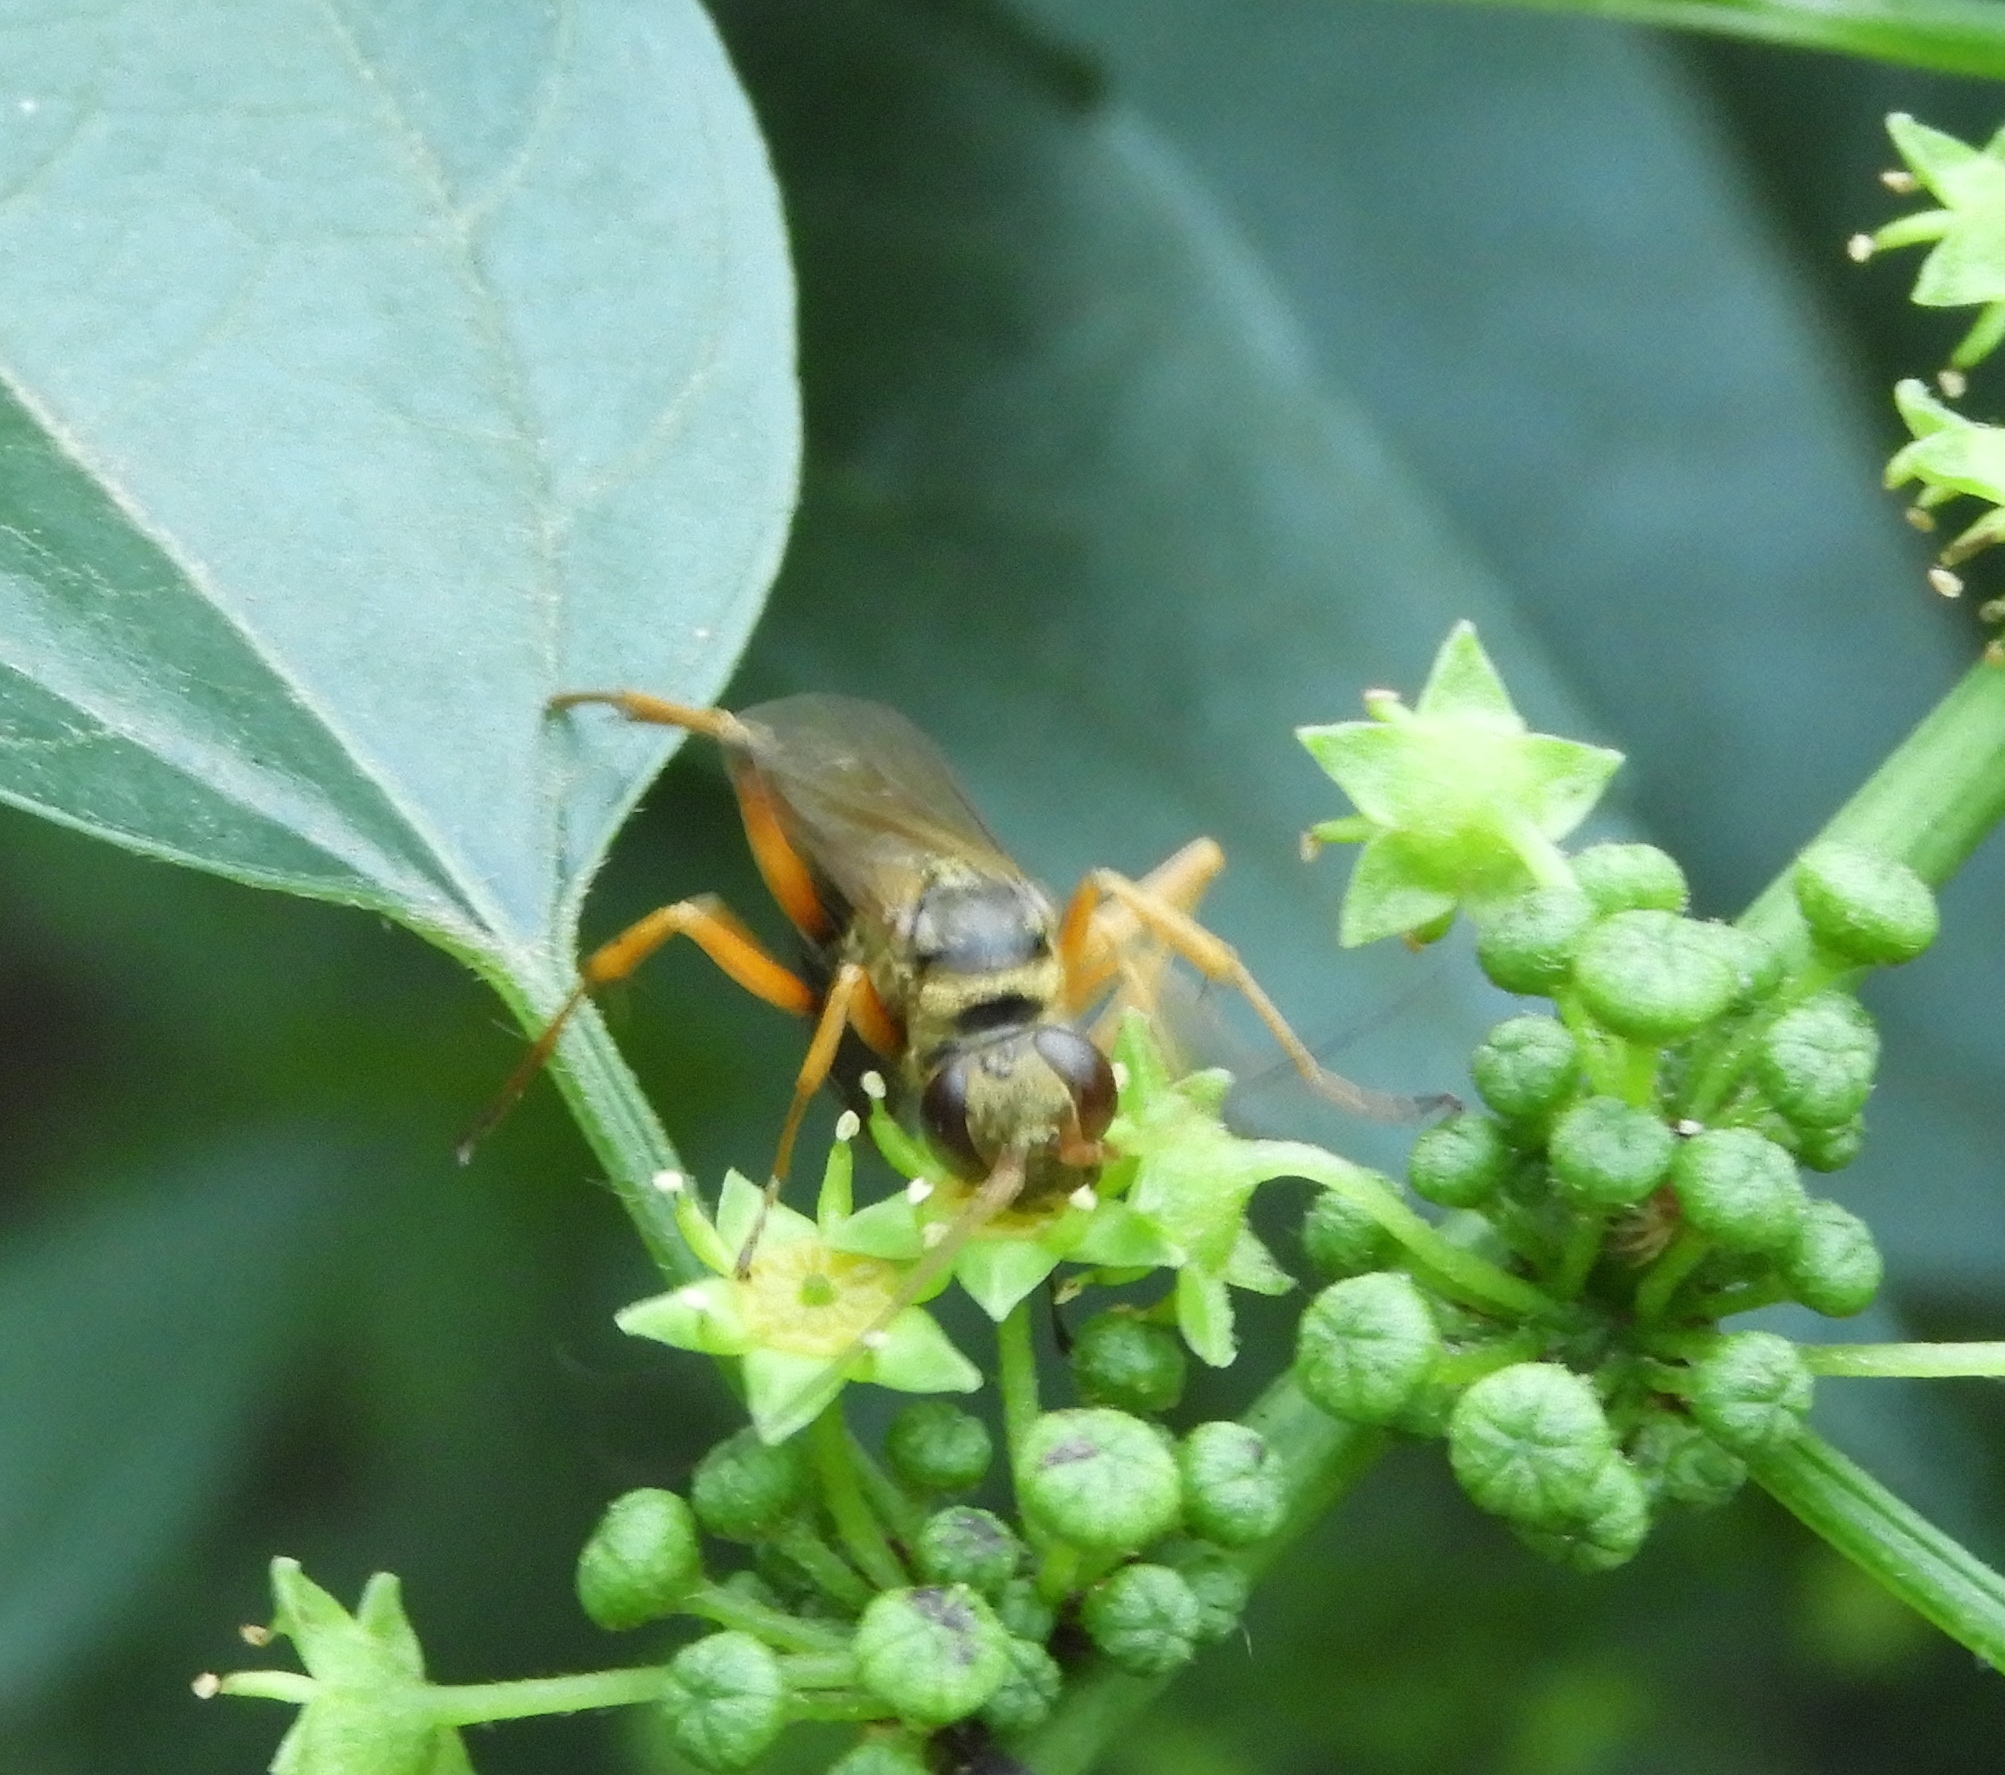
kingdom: Animalia
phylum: Arthropoda
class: Insecta
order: Hymenoptera
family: Pompilidae
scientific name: Pompilidae
